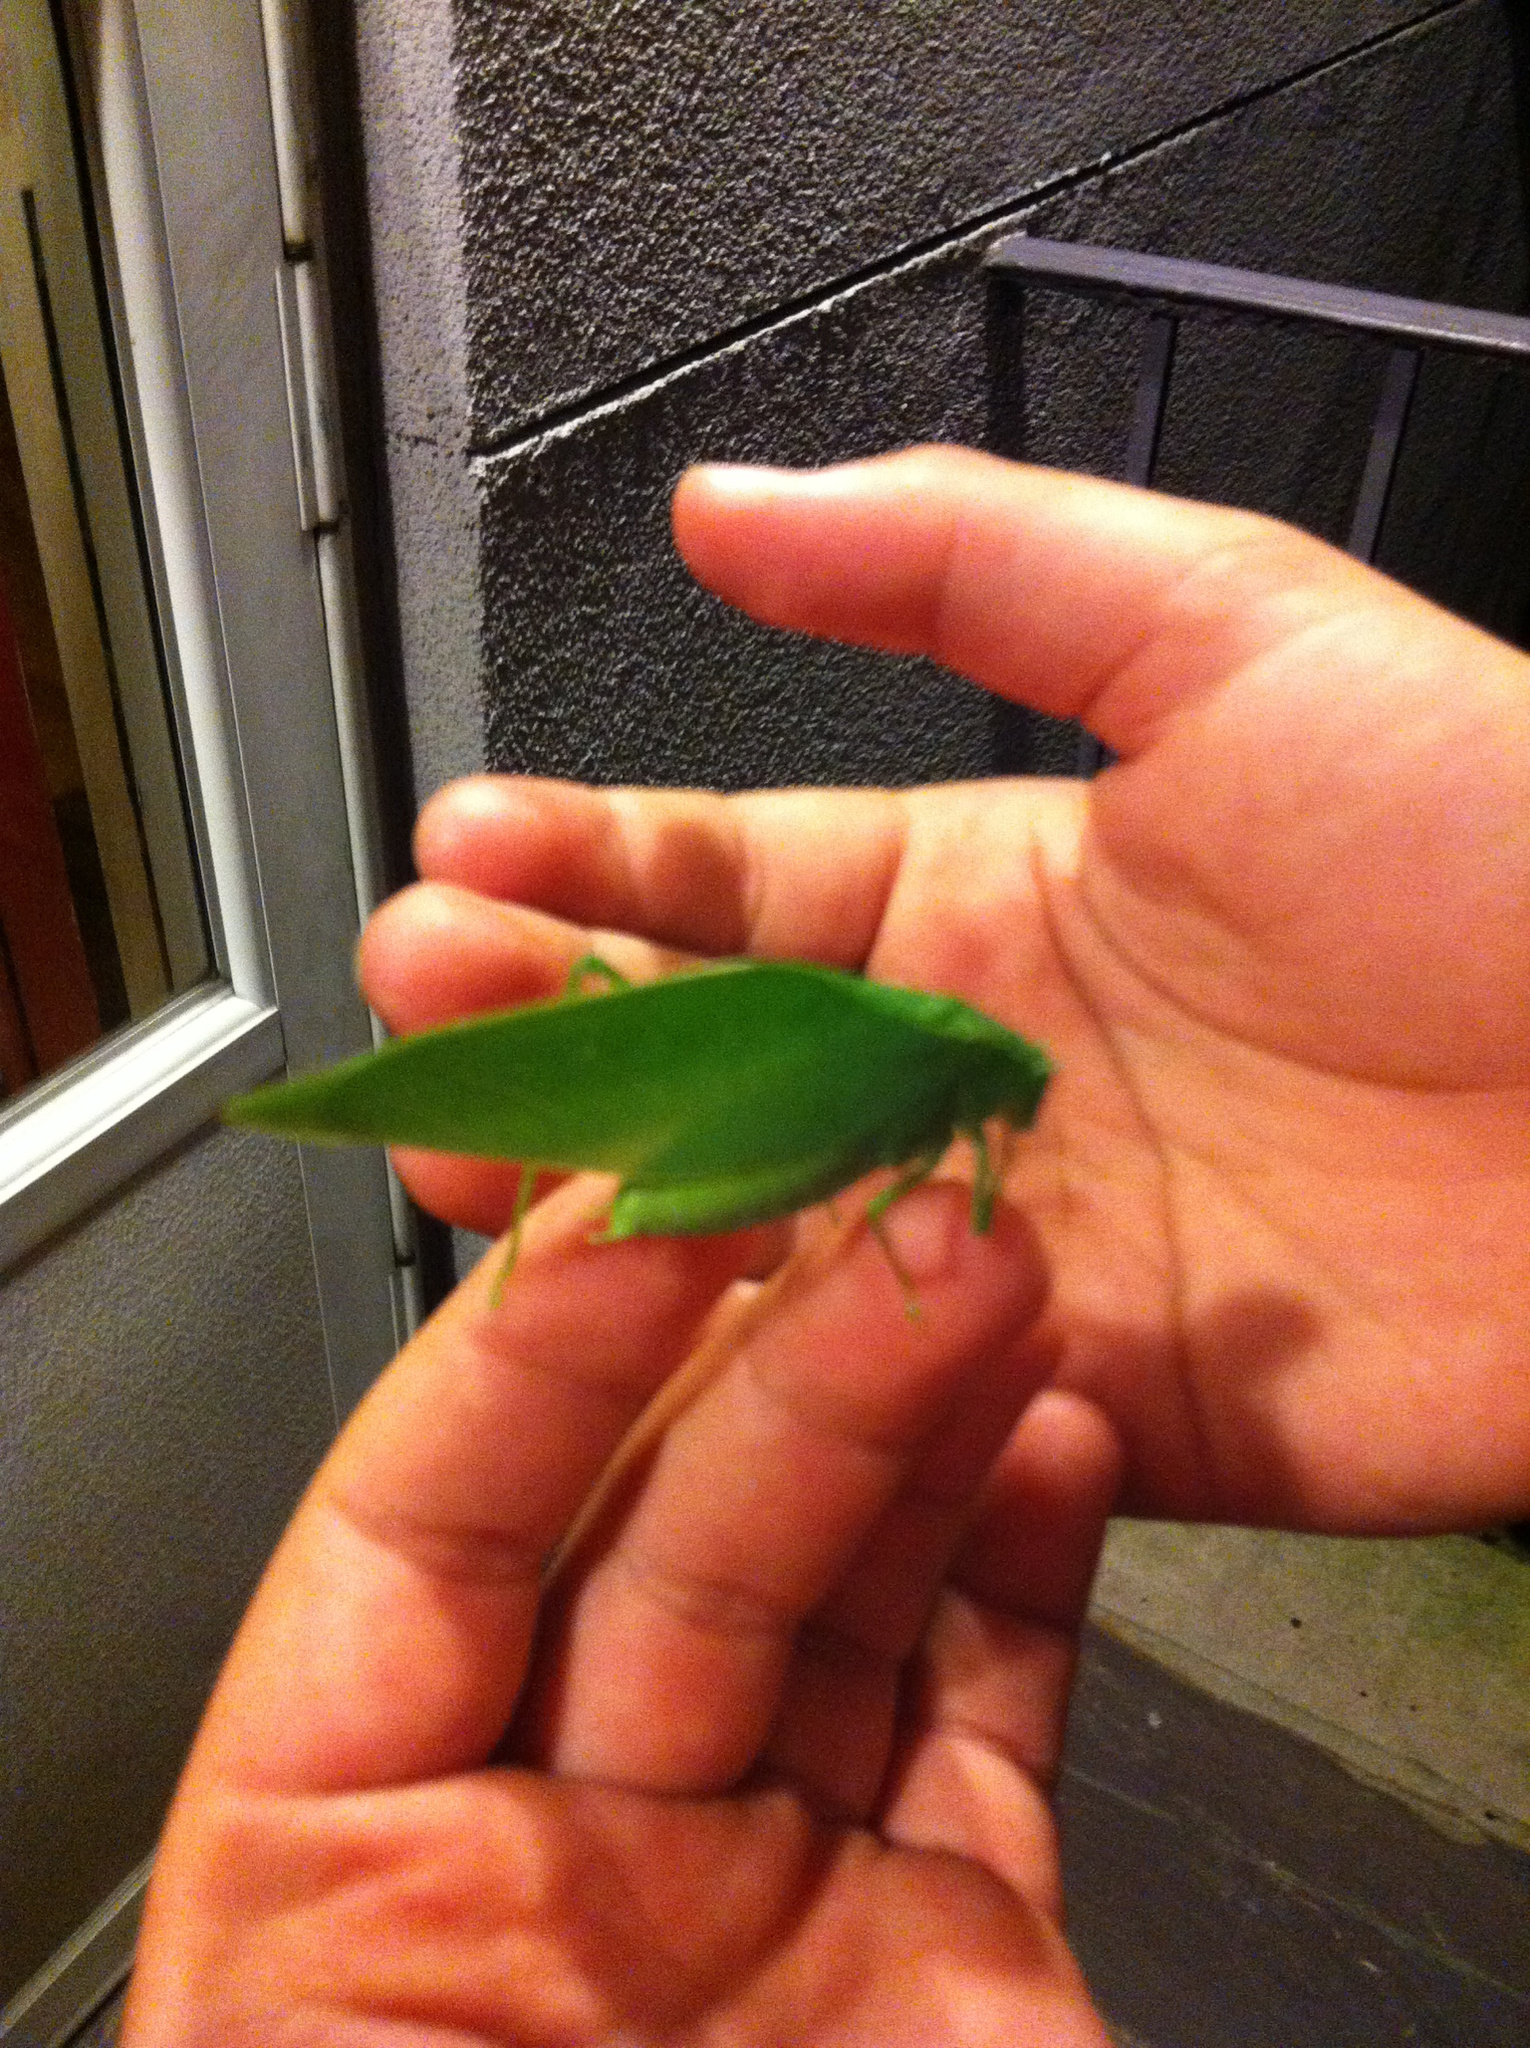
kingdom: Animalia
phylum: Arthropoda
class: Insecta
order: Orthoptera
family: Tettigoniidae
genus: Microcentrum
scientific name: Microcentrum rhombifolium
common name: Broad-winged katydid
